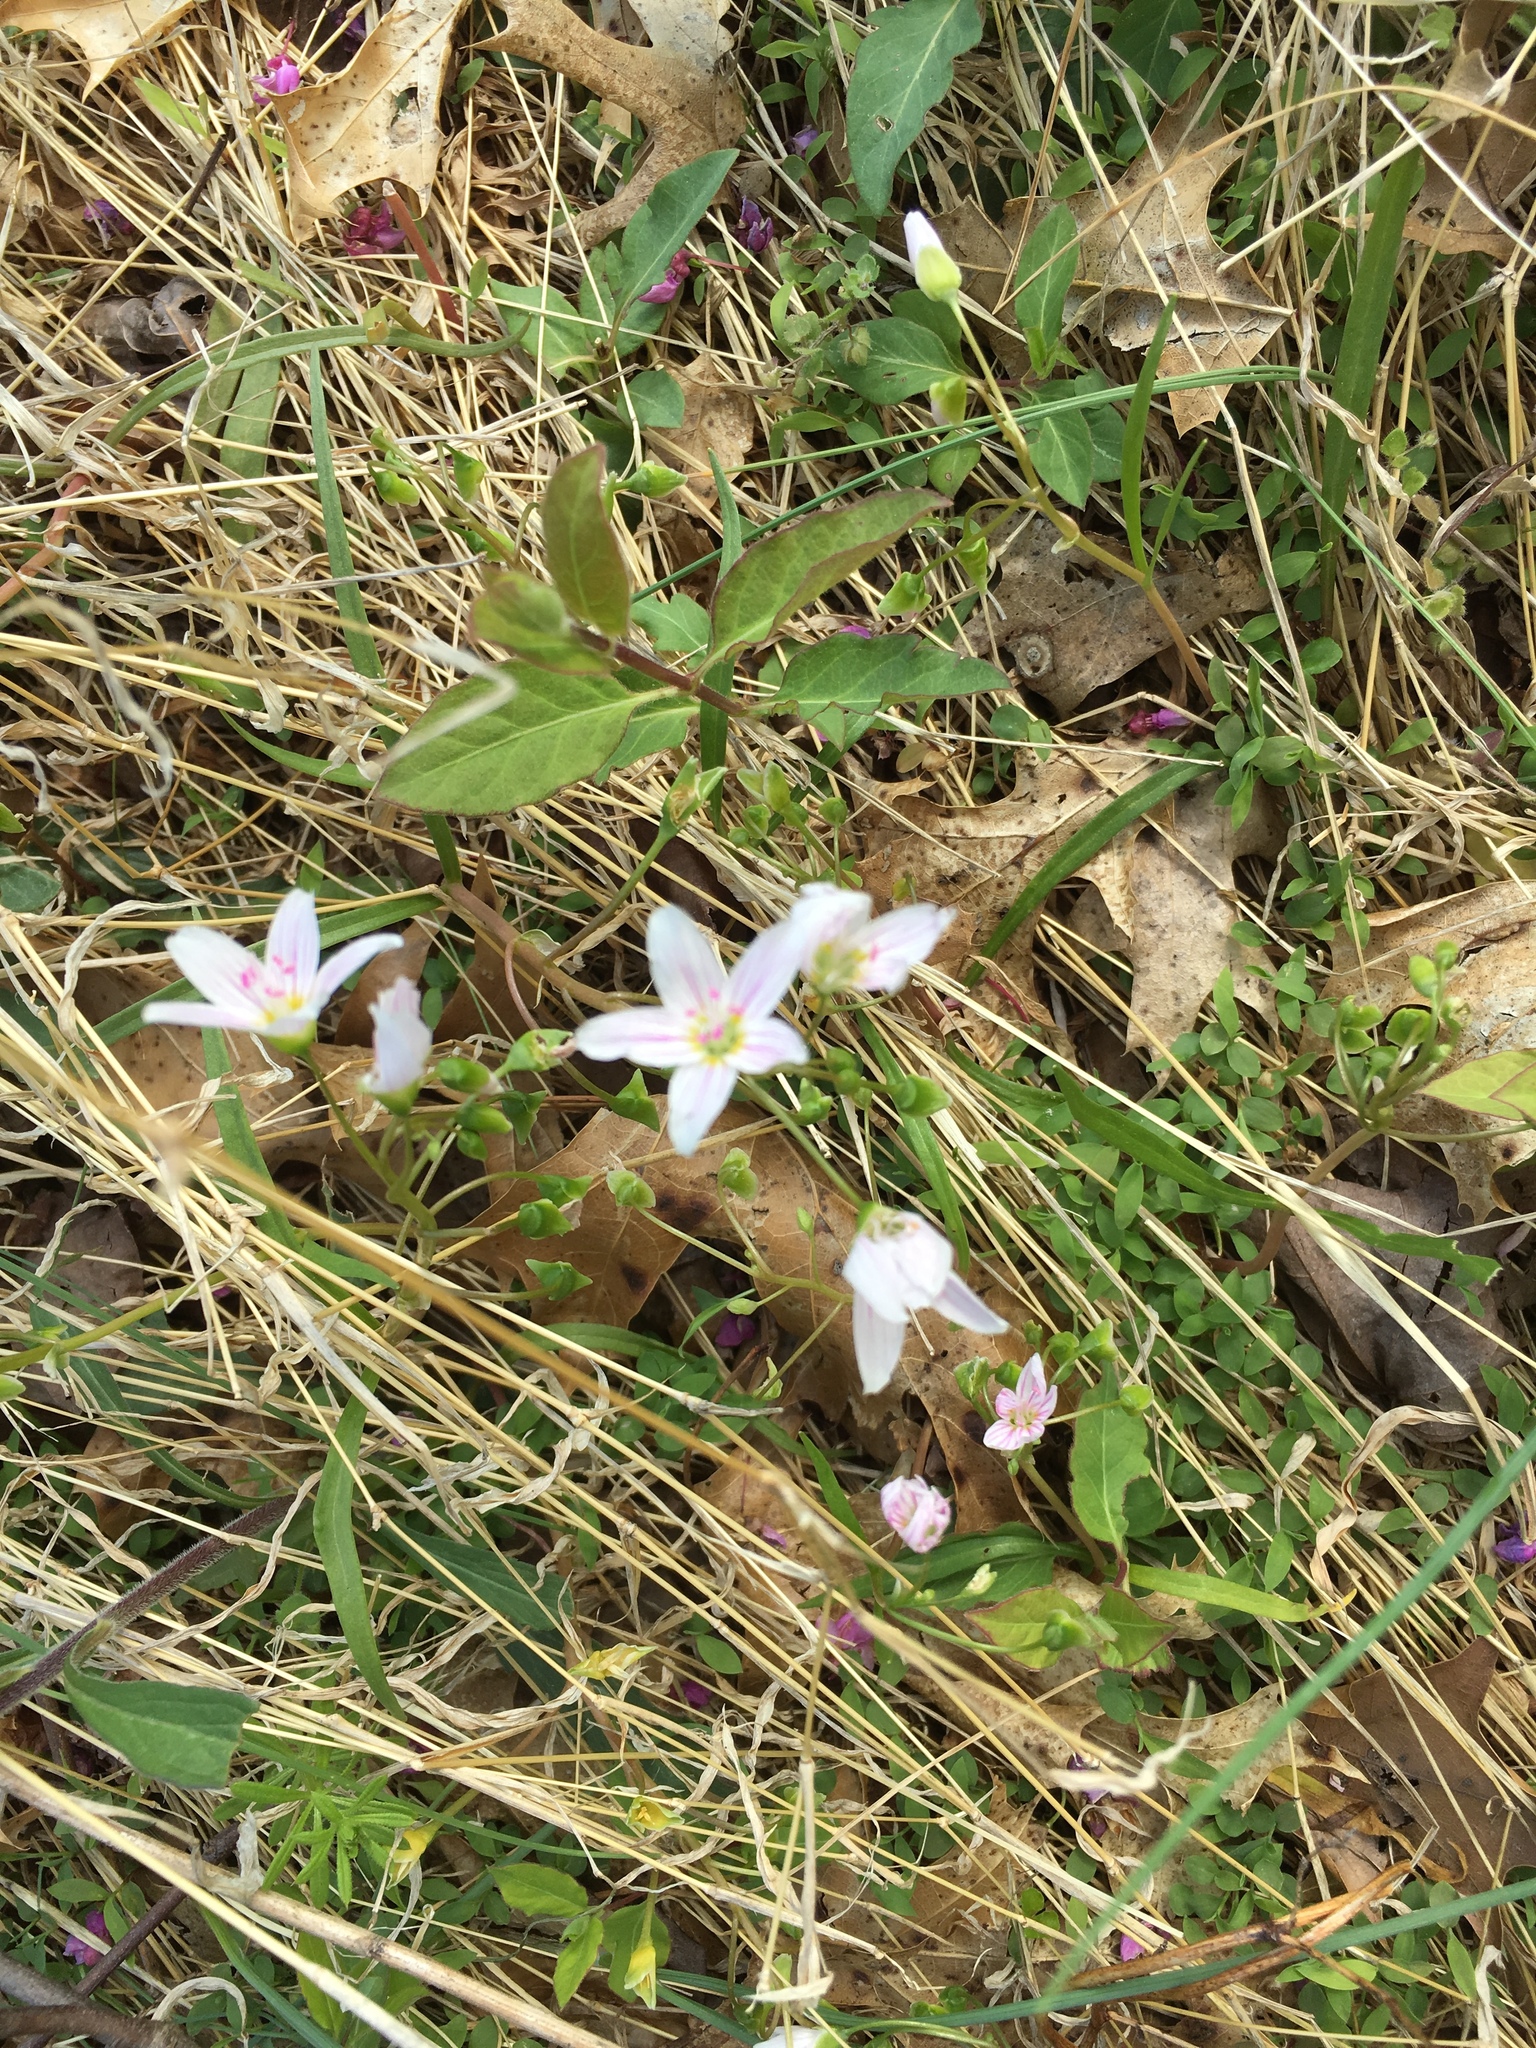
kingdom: Plantae
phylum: Tracheophyta
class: Magnoliopsida
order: Caryophyllales
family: Montiaceae
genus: Claytonia
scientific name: Claytonia virginica
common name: Virginia springbeauty
